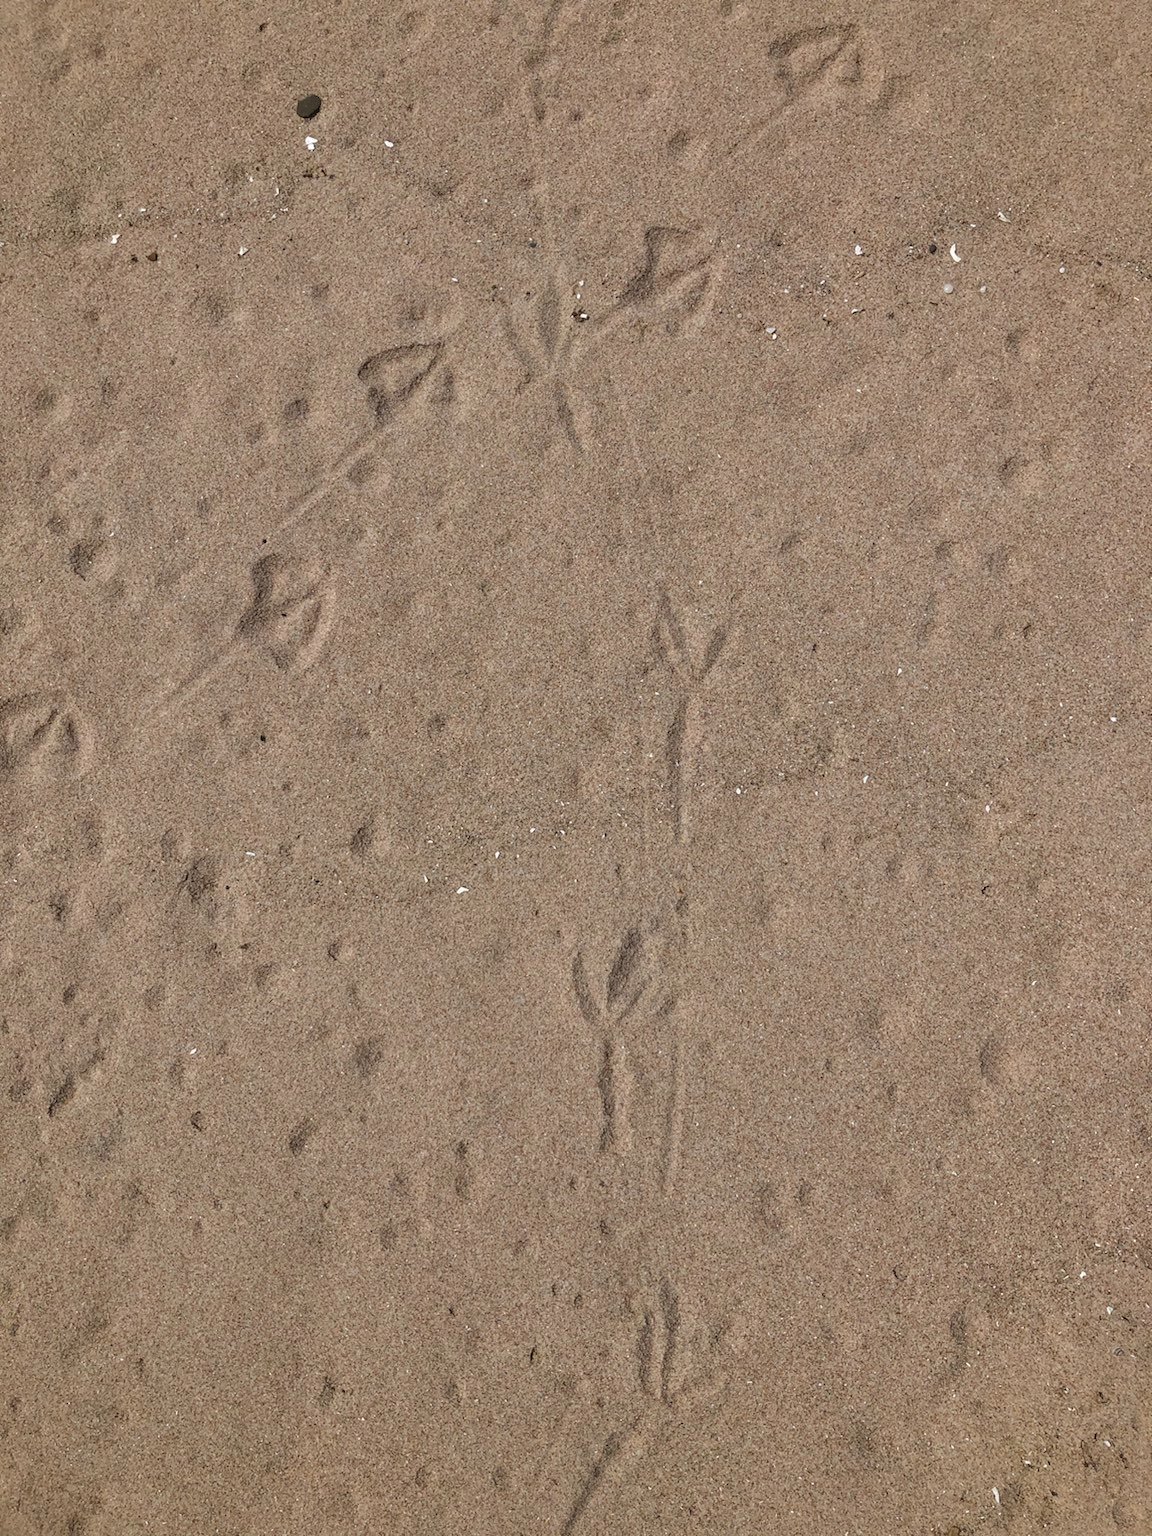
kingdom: Animalia
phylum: Chordata
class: Aves
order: Charadriiformes
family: Laridae
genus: Larus
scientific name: Larus delawarensis
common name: Ring-billed gull
